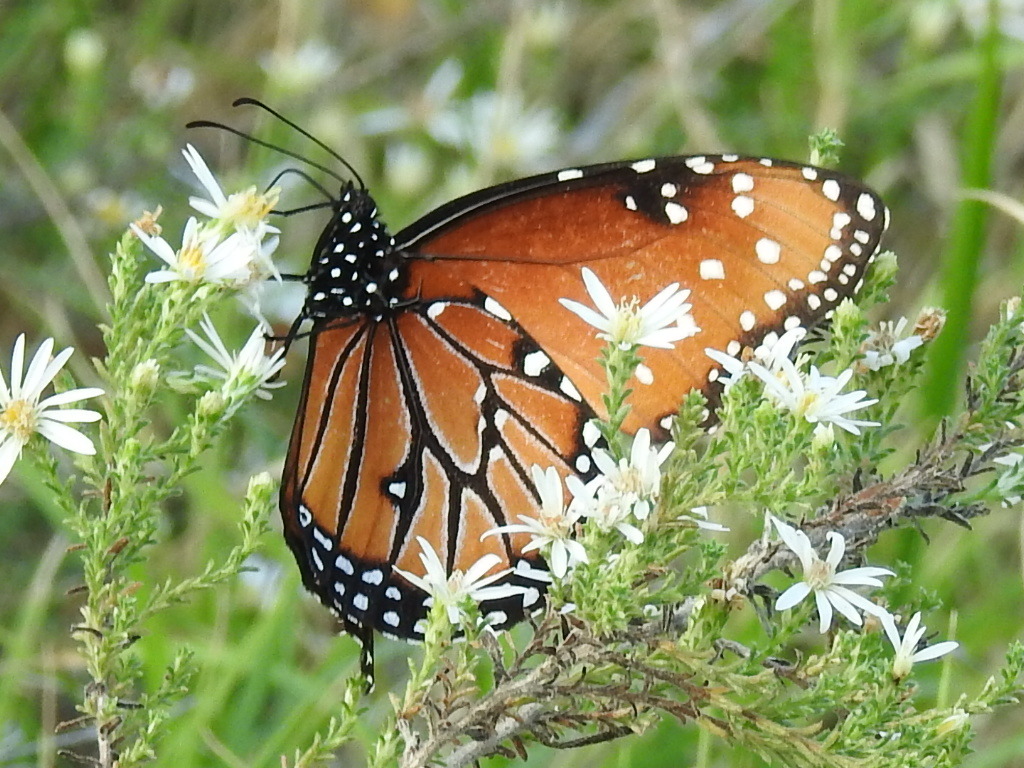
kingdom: Animalia
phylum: Arthropoda
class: Insecta
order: Lepidoptera
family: Nymphalidae
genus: Danaus
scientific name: Danaus gilippus
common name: Queen
